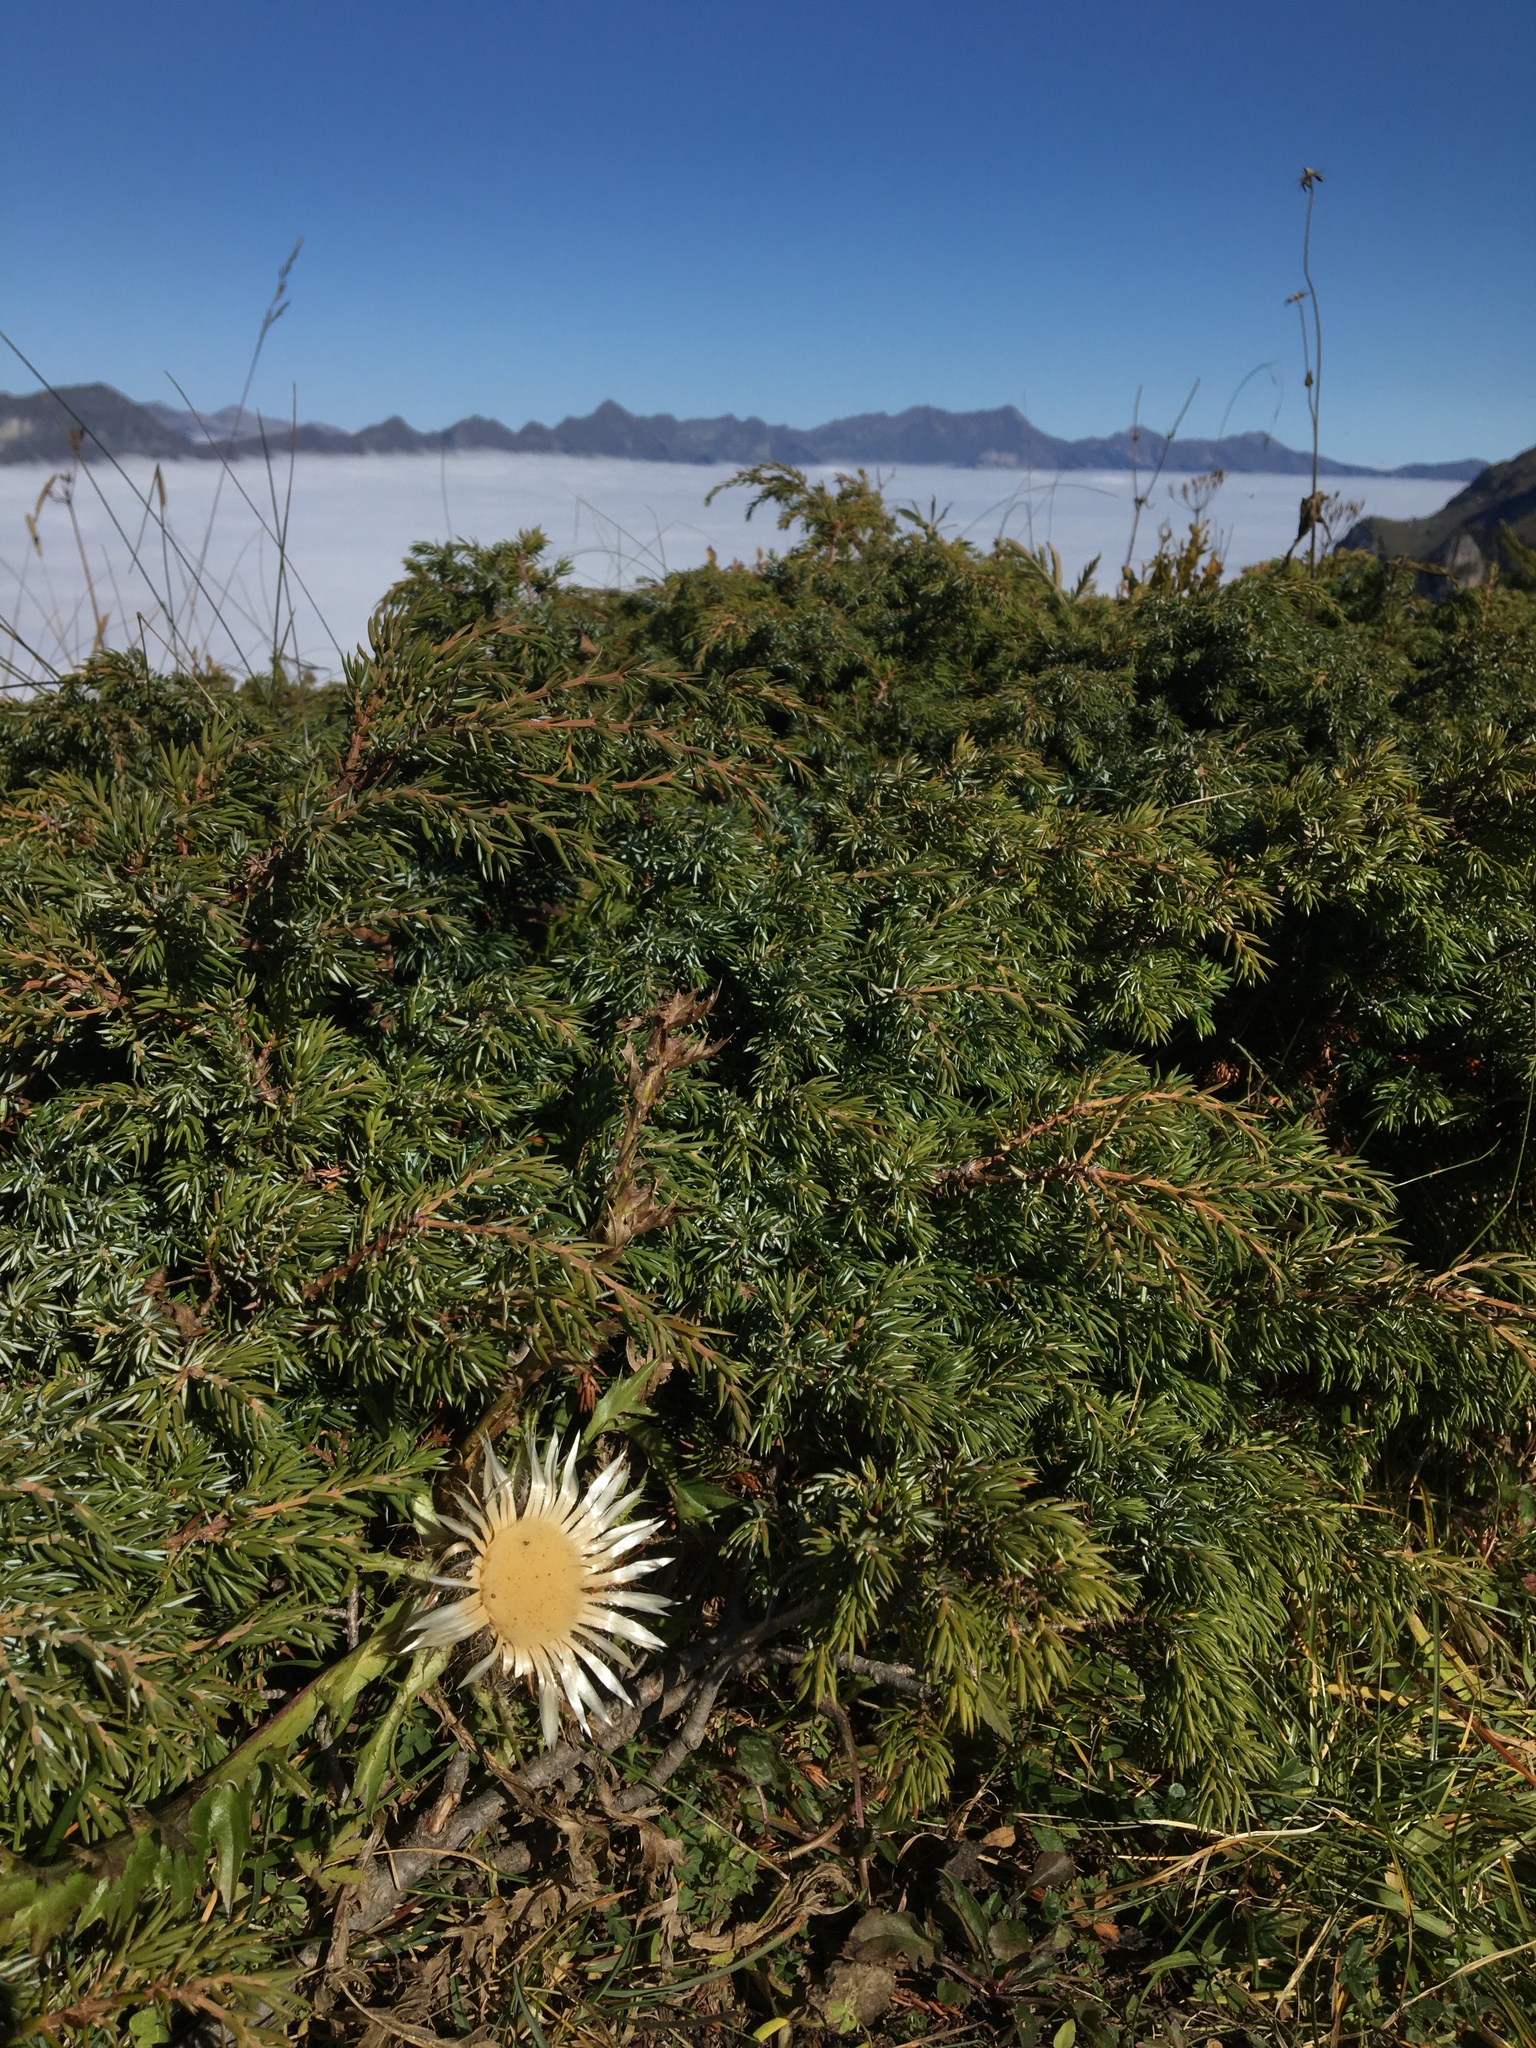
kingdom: Plantae
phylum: Tracheophyta
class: Magnoliopsida
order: Asterales
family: Asteraceae
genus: Carlina
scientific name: Carlina acaulis
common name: Stemless carline thistle
